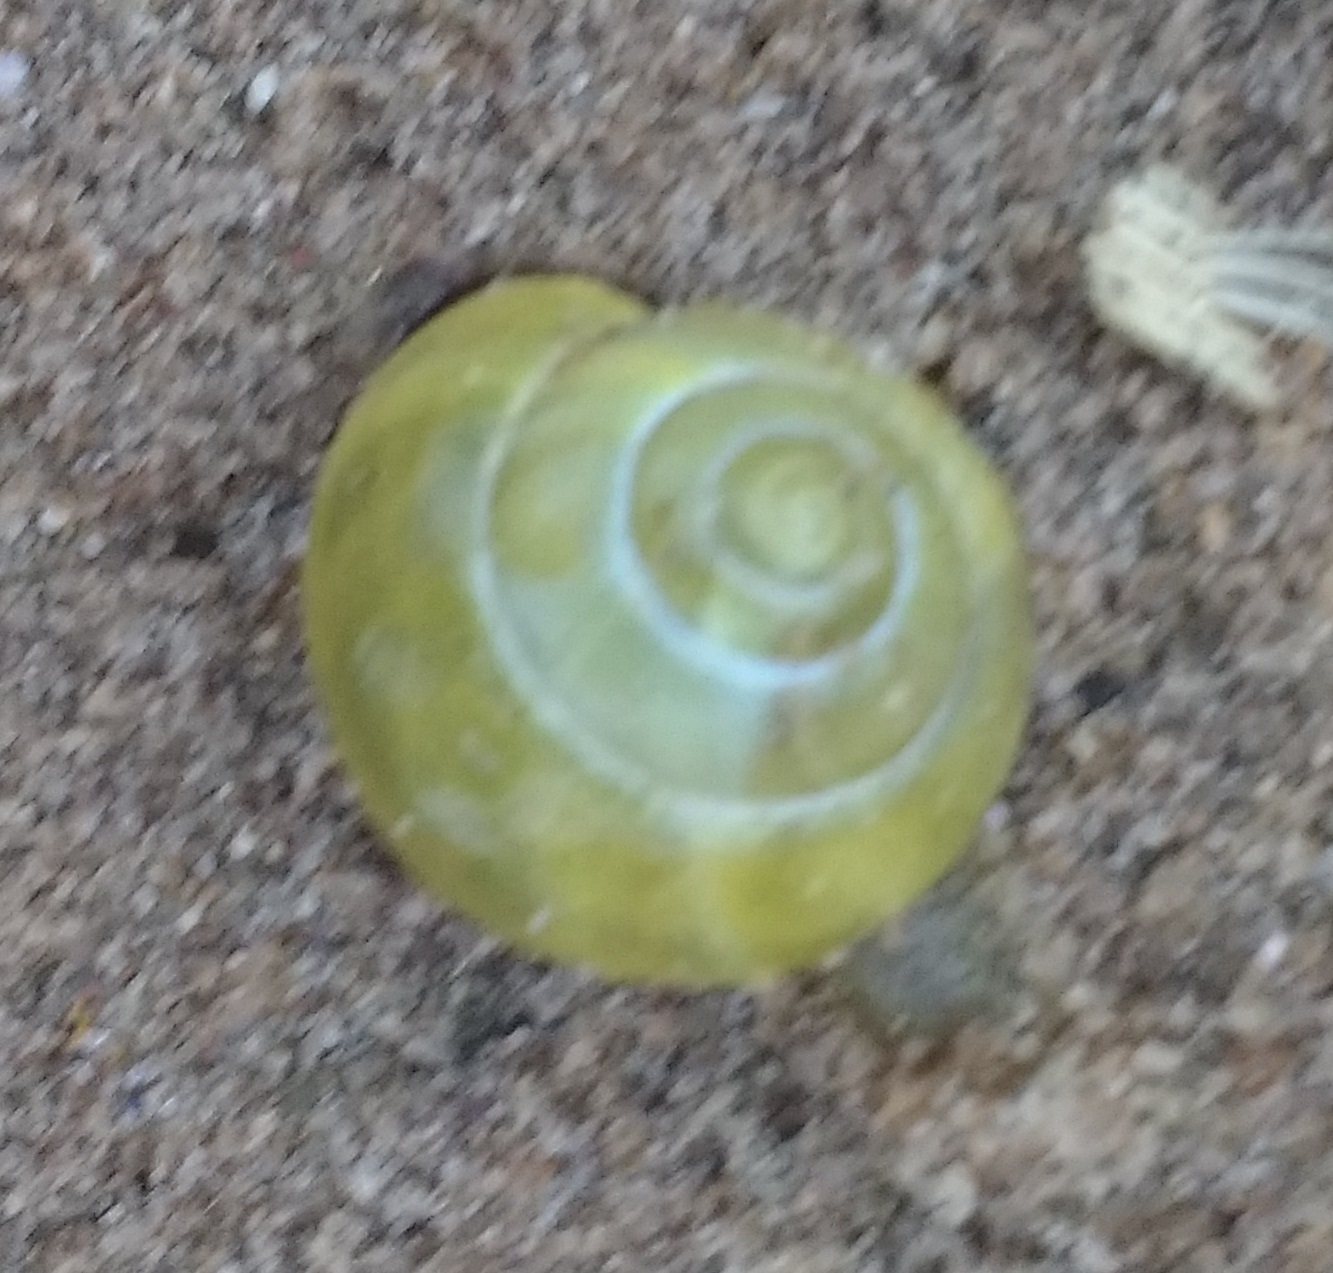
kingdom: Animalia
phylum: Mollusca
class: Gastropoda
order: Stylommatophora
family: Helicidae
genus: Cepaea
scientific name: Cepaea nemoralis
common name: Grovesnail
